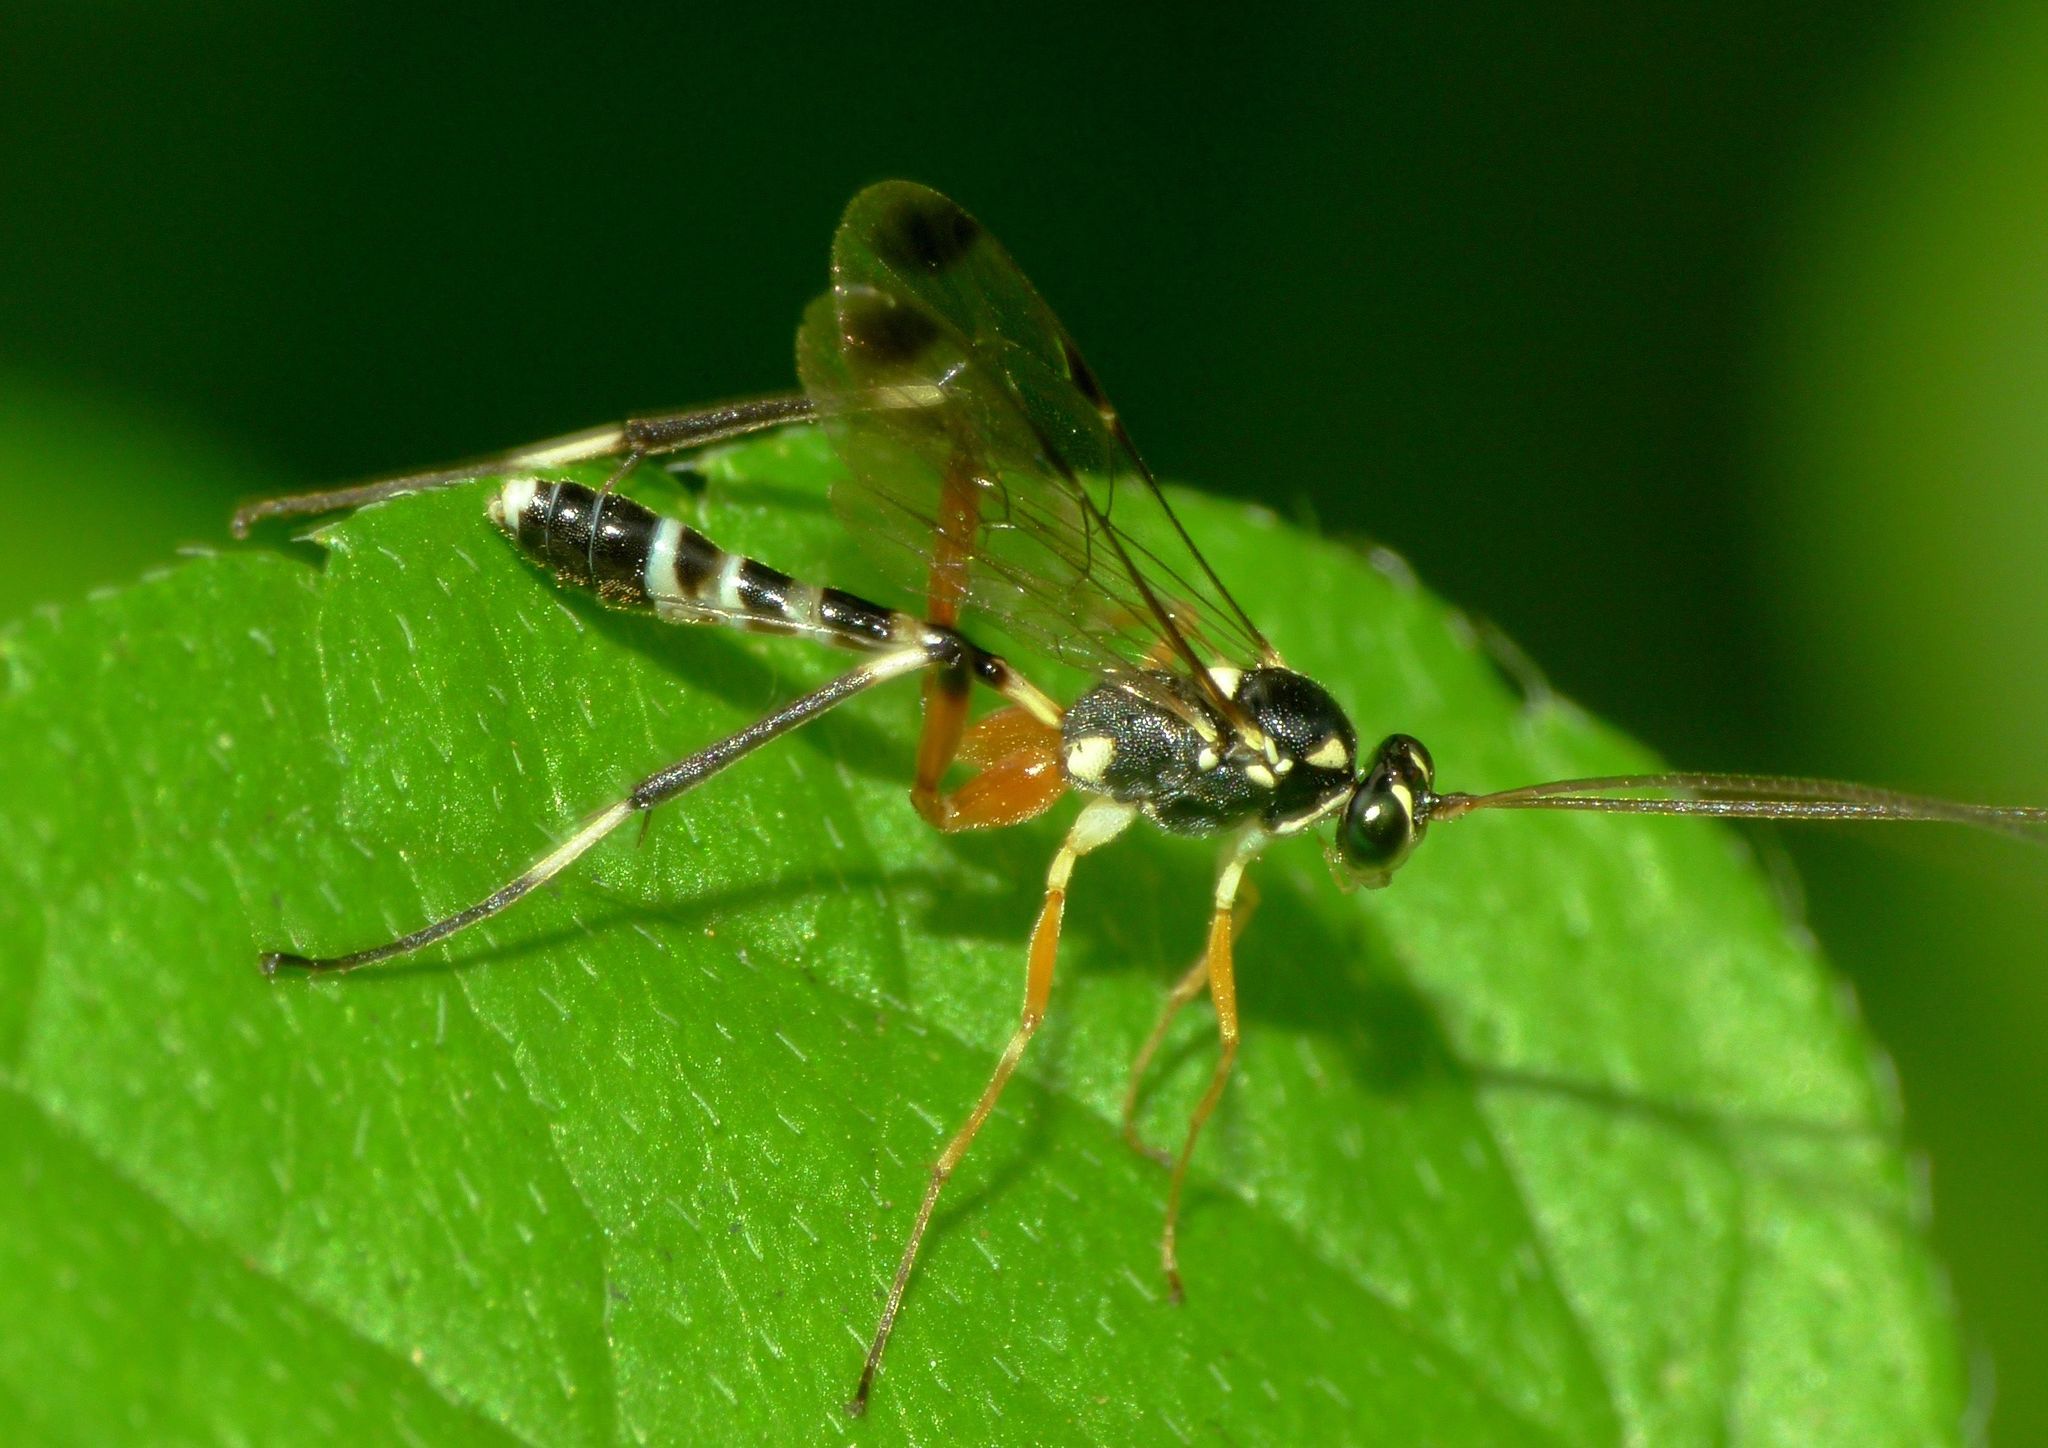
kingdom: Animalia
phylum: Arthropoda
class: Insecta
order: Hymenoptera
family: Ichneumonidae
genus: Leptobatopsis
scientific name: Leptobatopsis indica
